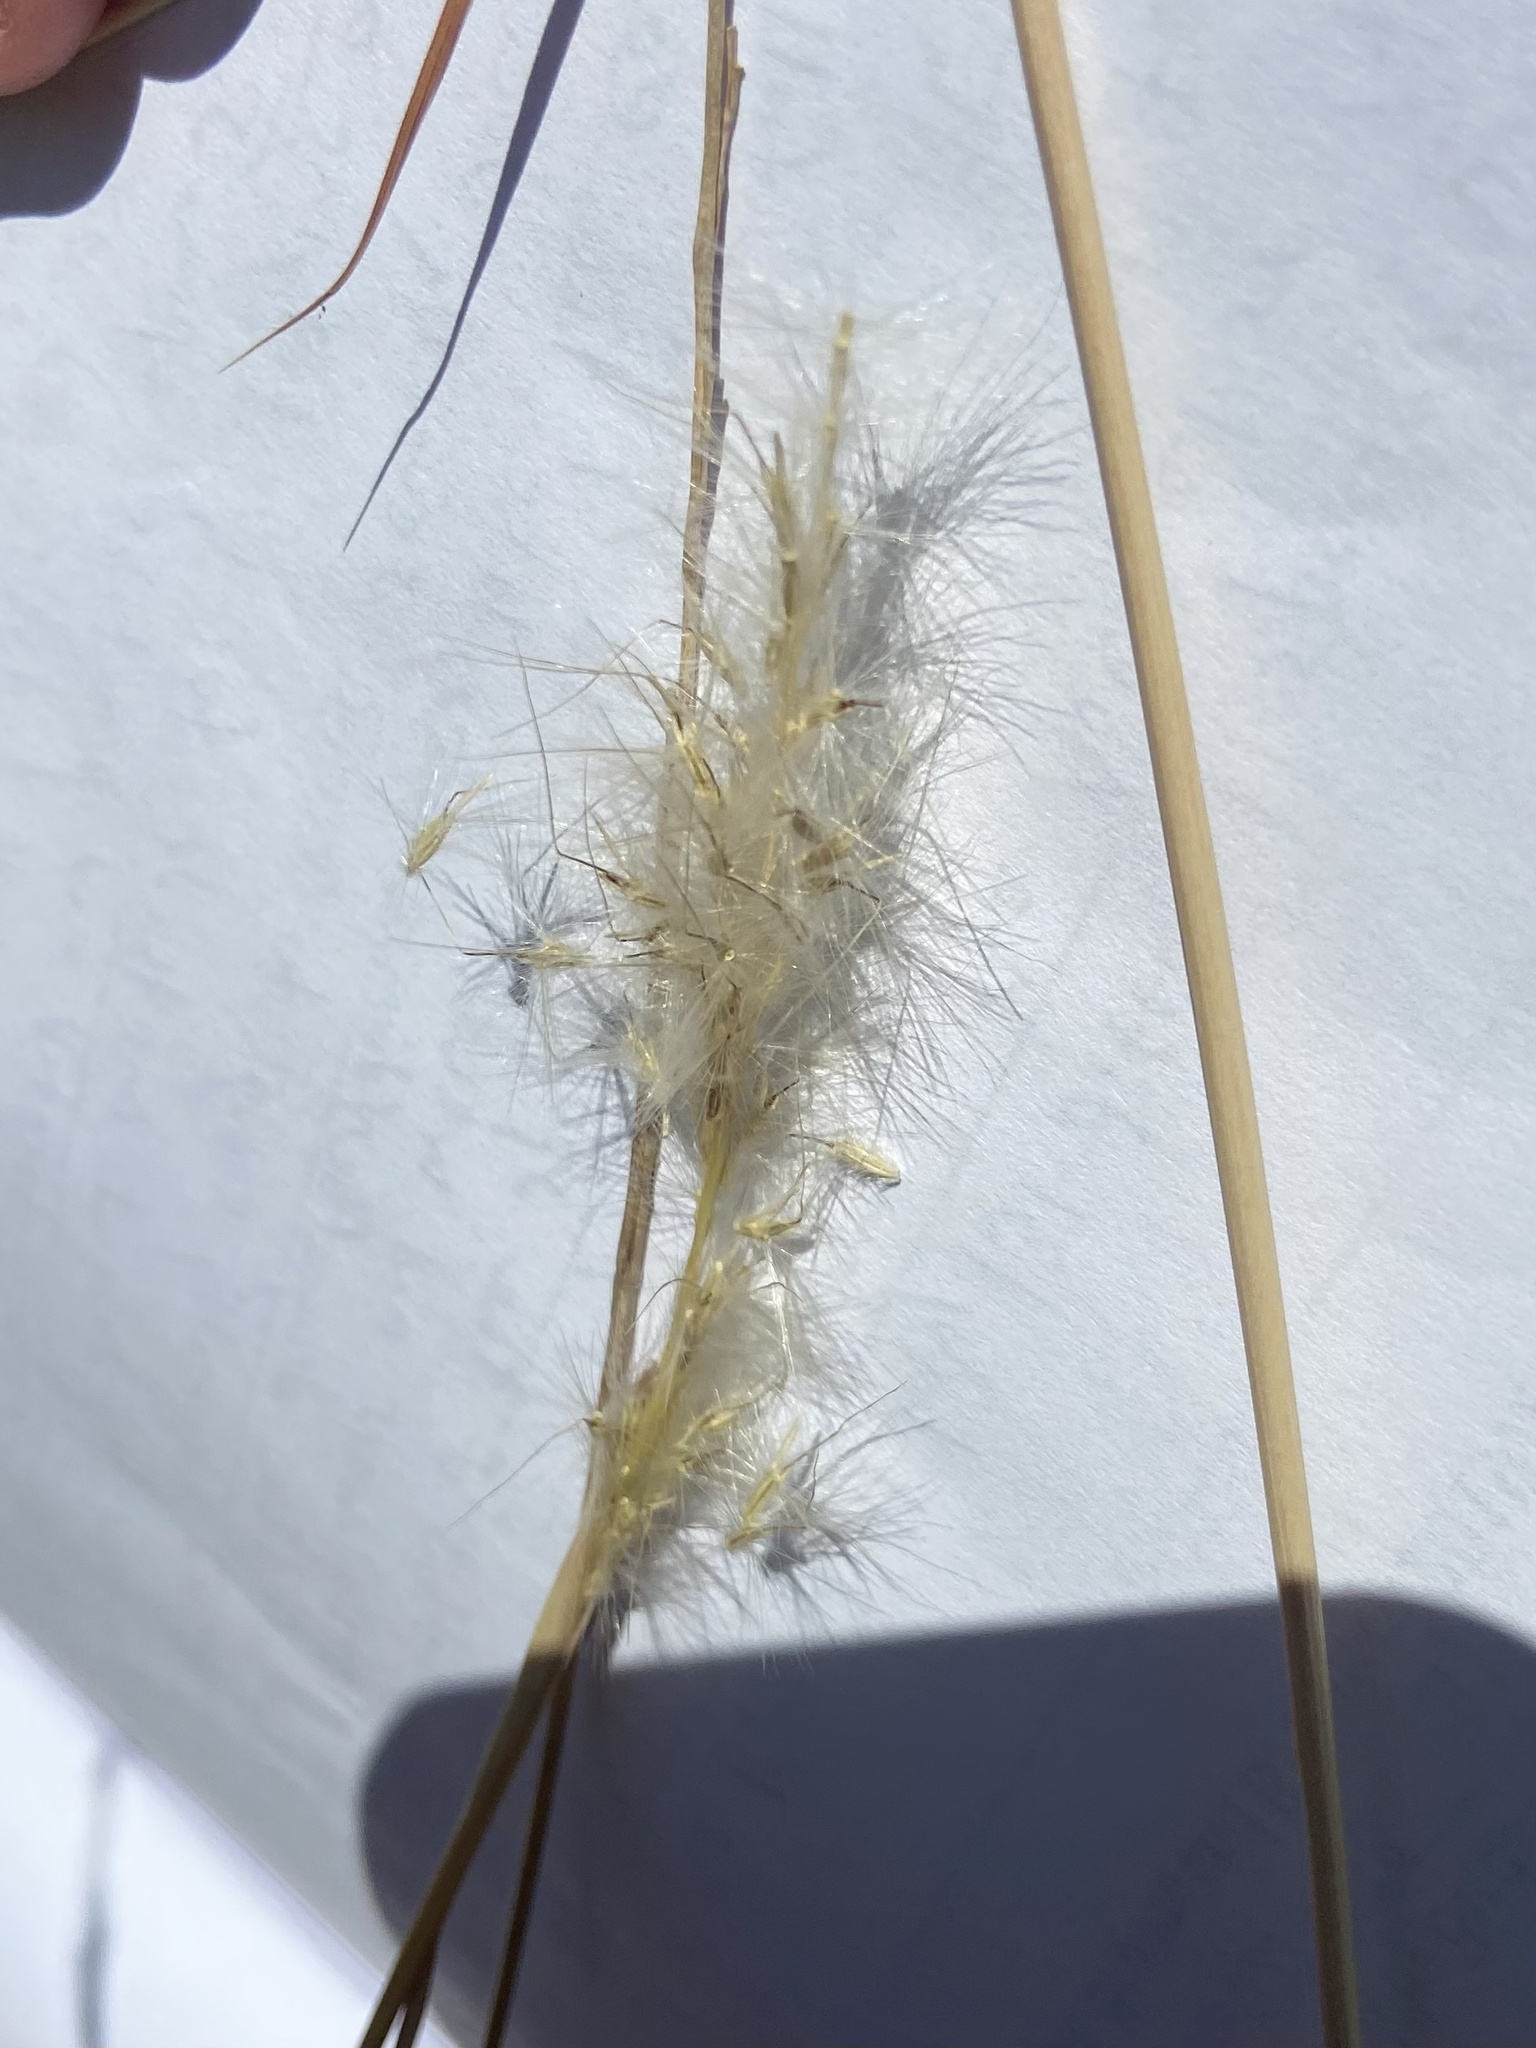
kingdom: Plantae
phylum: Tracheophyta
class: Liliopsida
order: Poales
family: Poaceae
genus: Bothriochloa
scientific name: Bothriochloa torreyana
